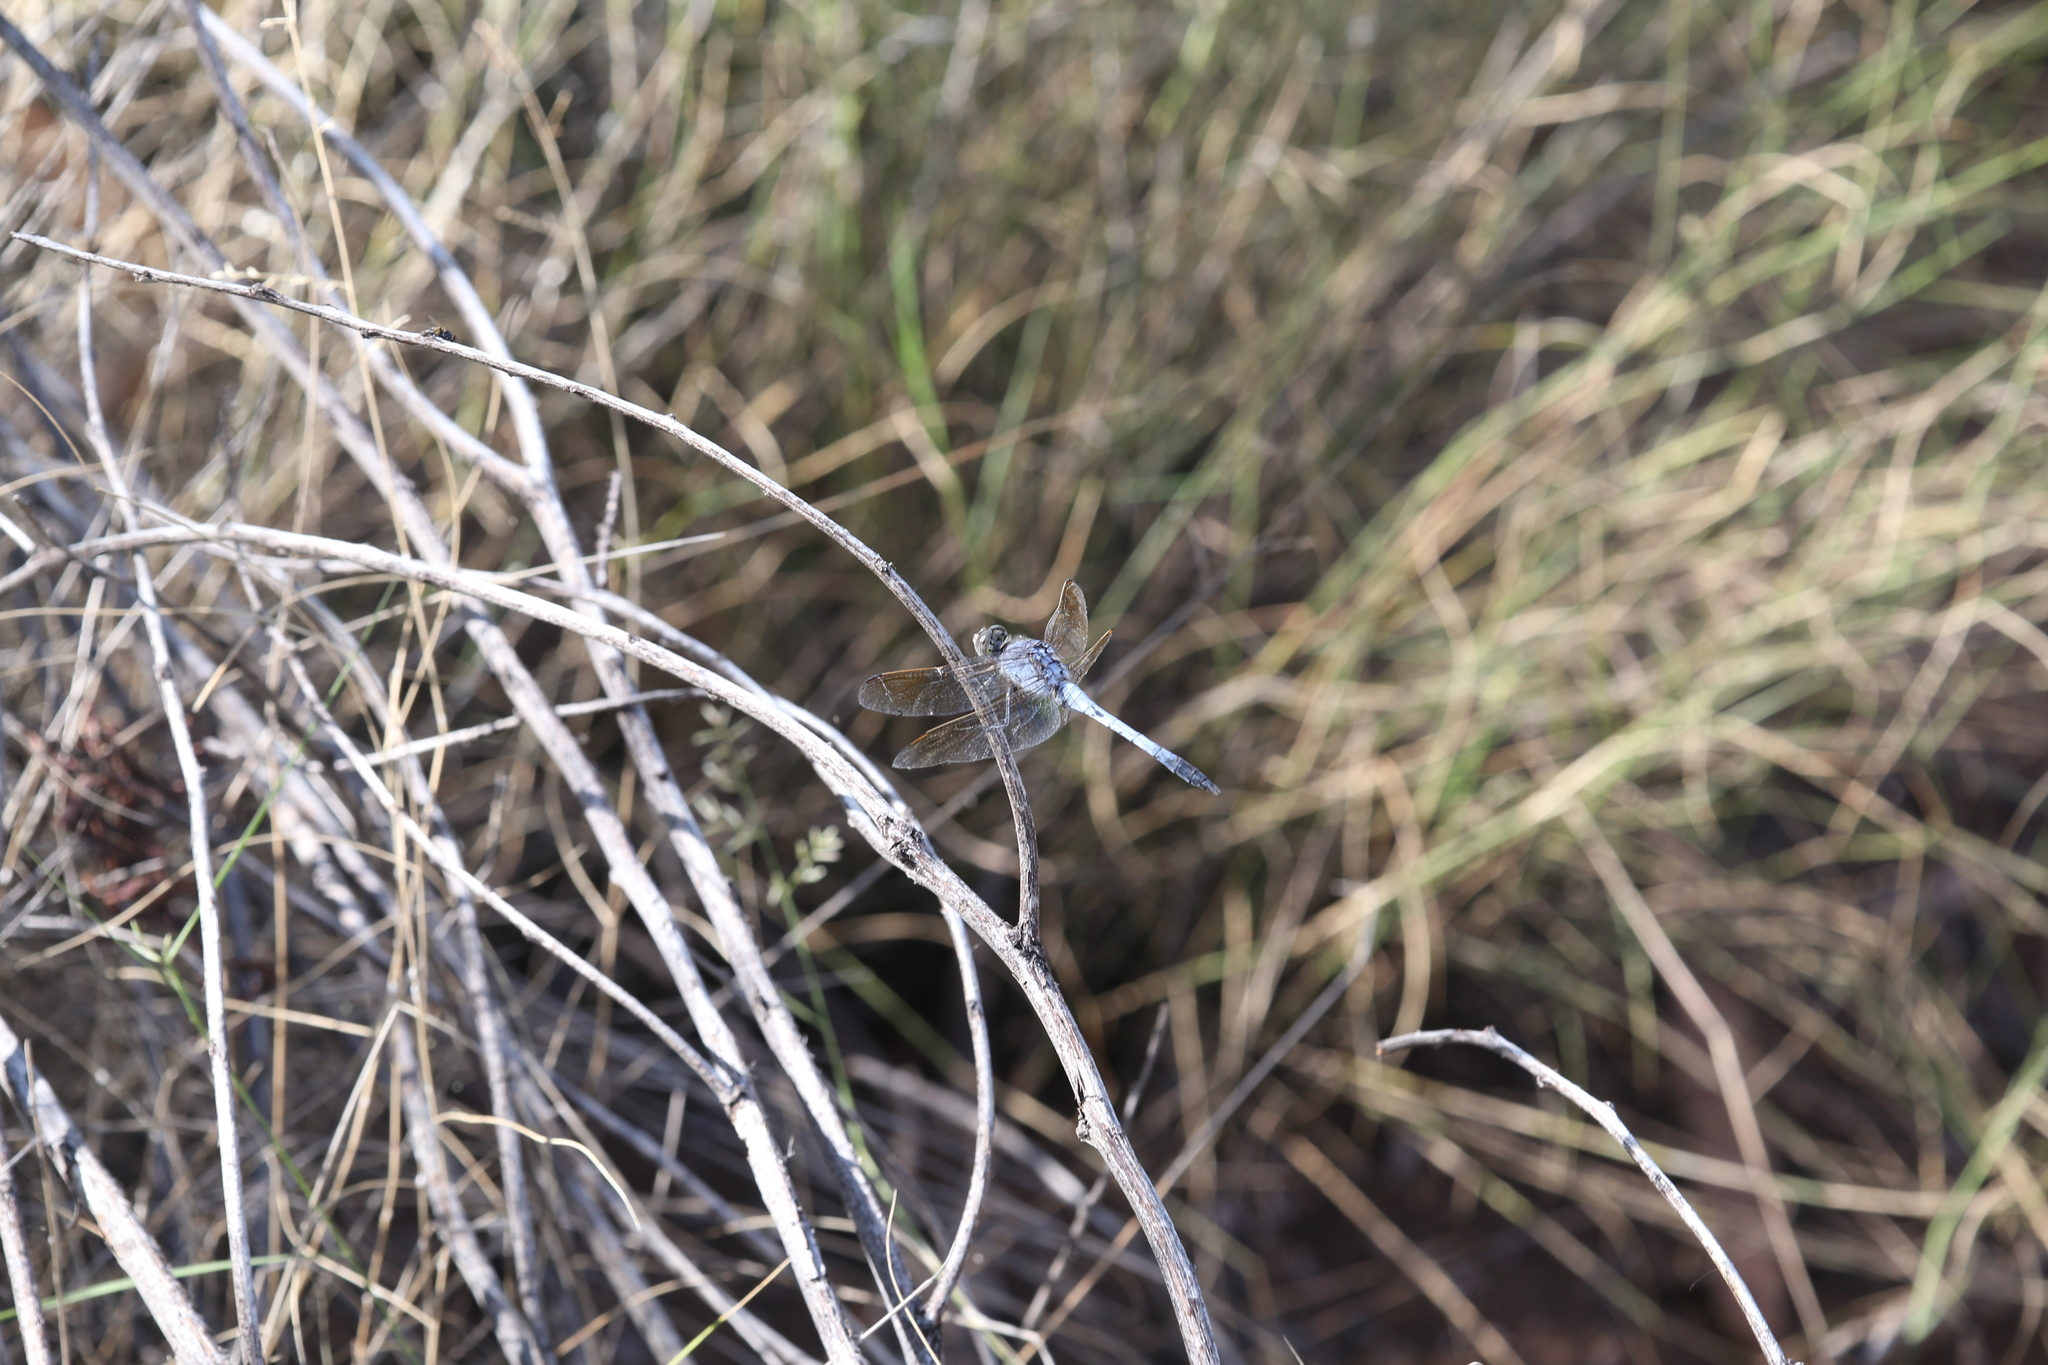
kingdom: Animalia
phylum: Arthropoda
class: Insecta
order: Odonata
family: Libellulidae
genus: Orthetrum
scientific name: Orthetrum caledonicum
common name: Blue skimmer
